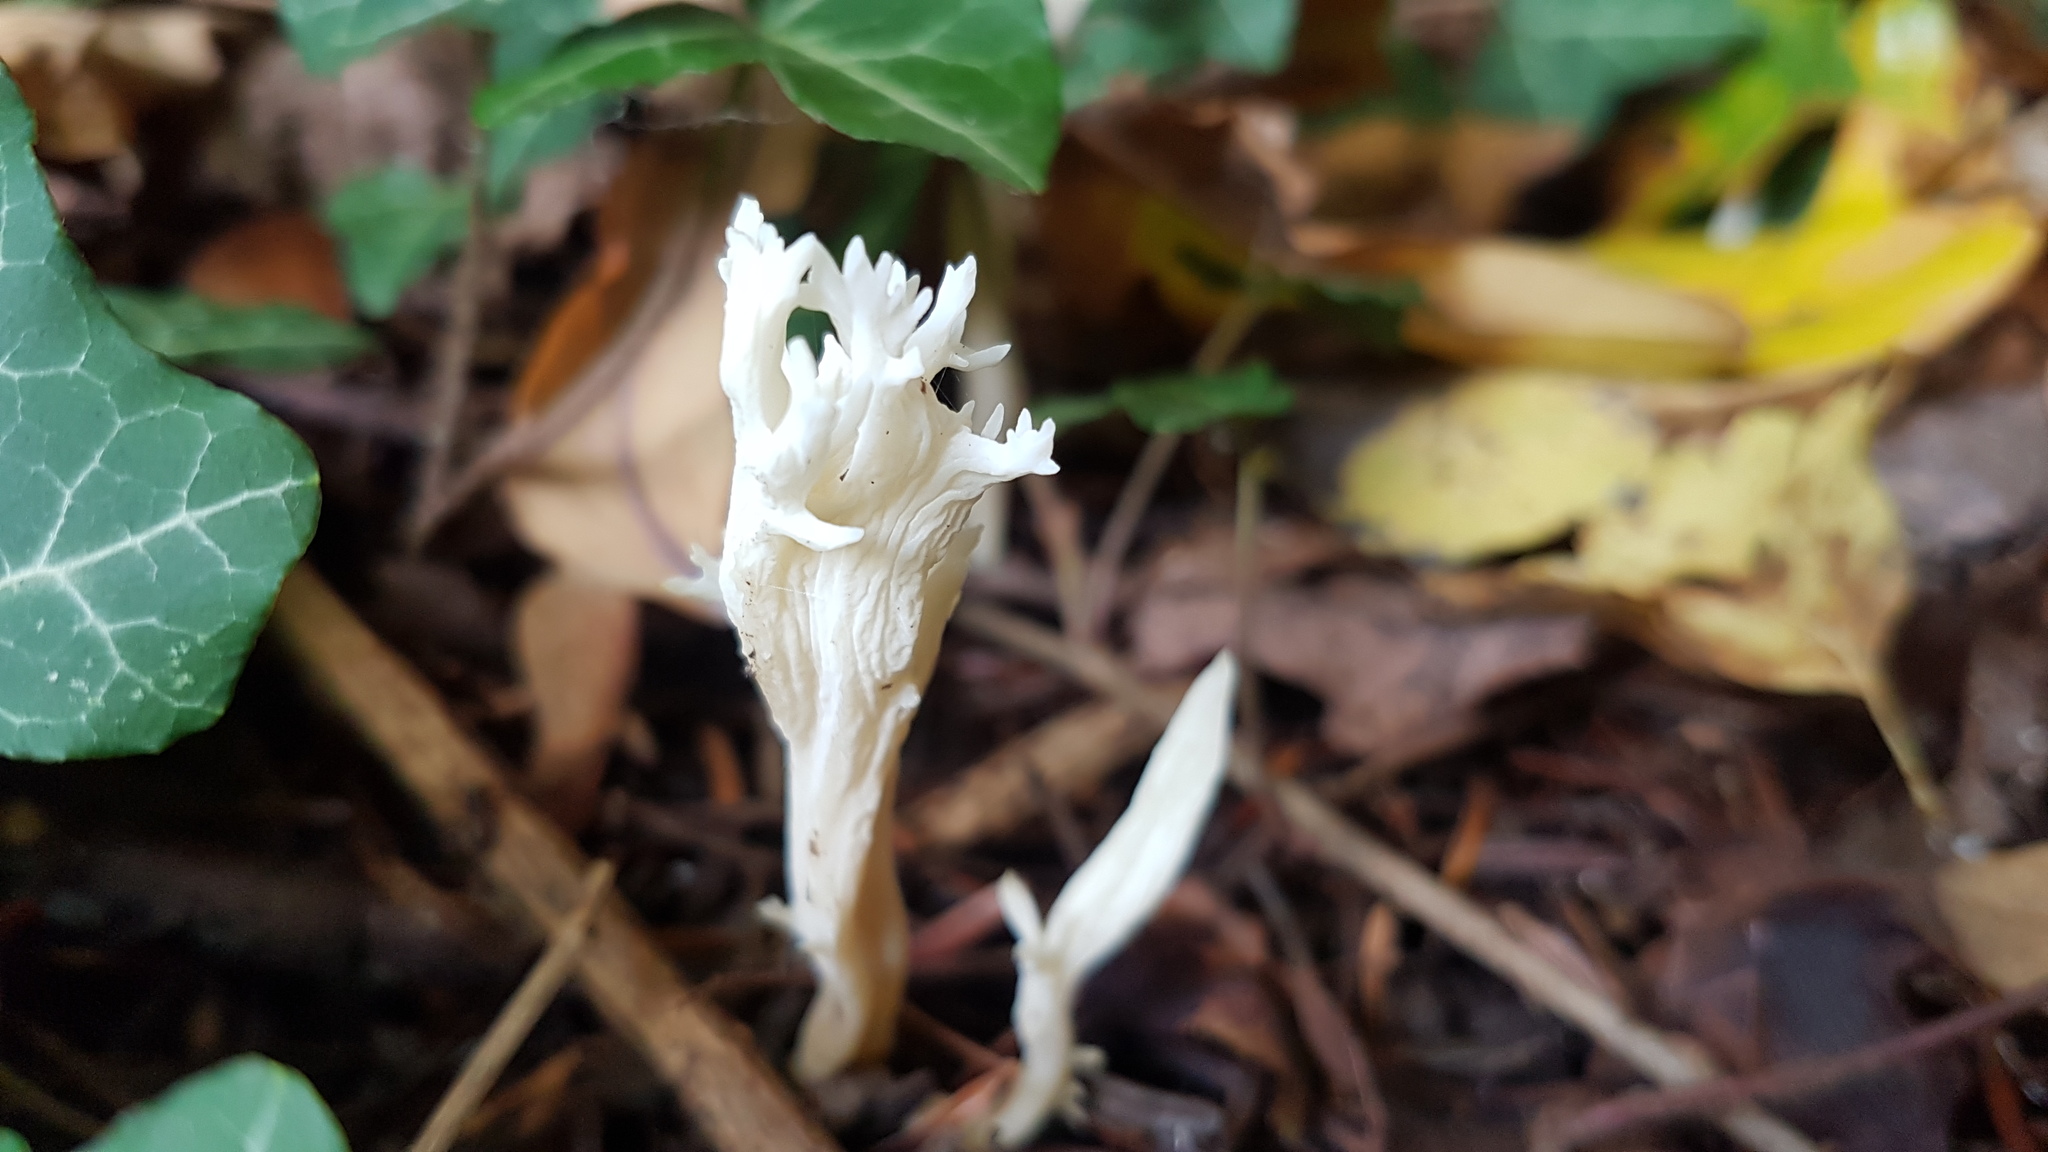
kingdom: Fungi
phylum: Basidiomycota
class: Agaricomycetes
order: Cantharellales
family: Hydnaceae
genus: Clavulina
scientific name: Clavulina rugosa
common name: Wrinkled club
